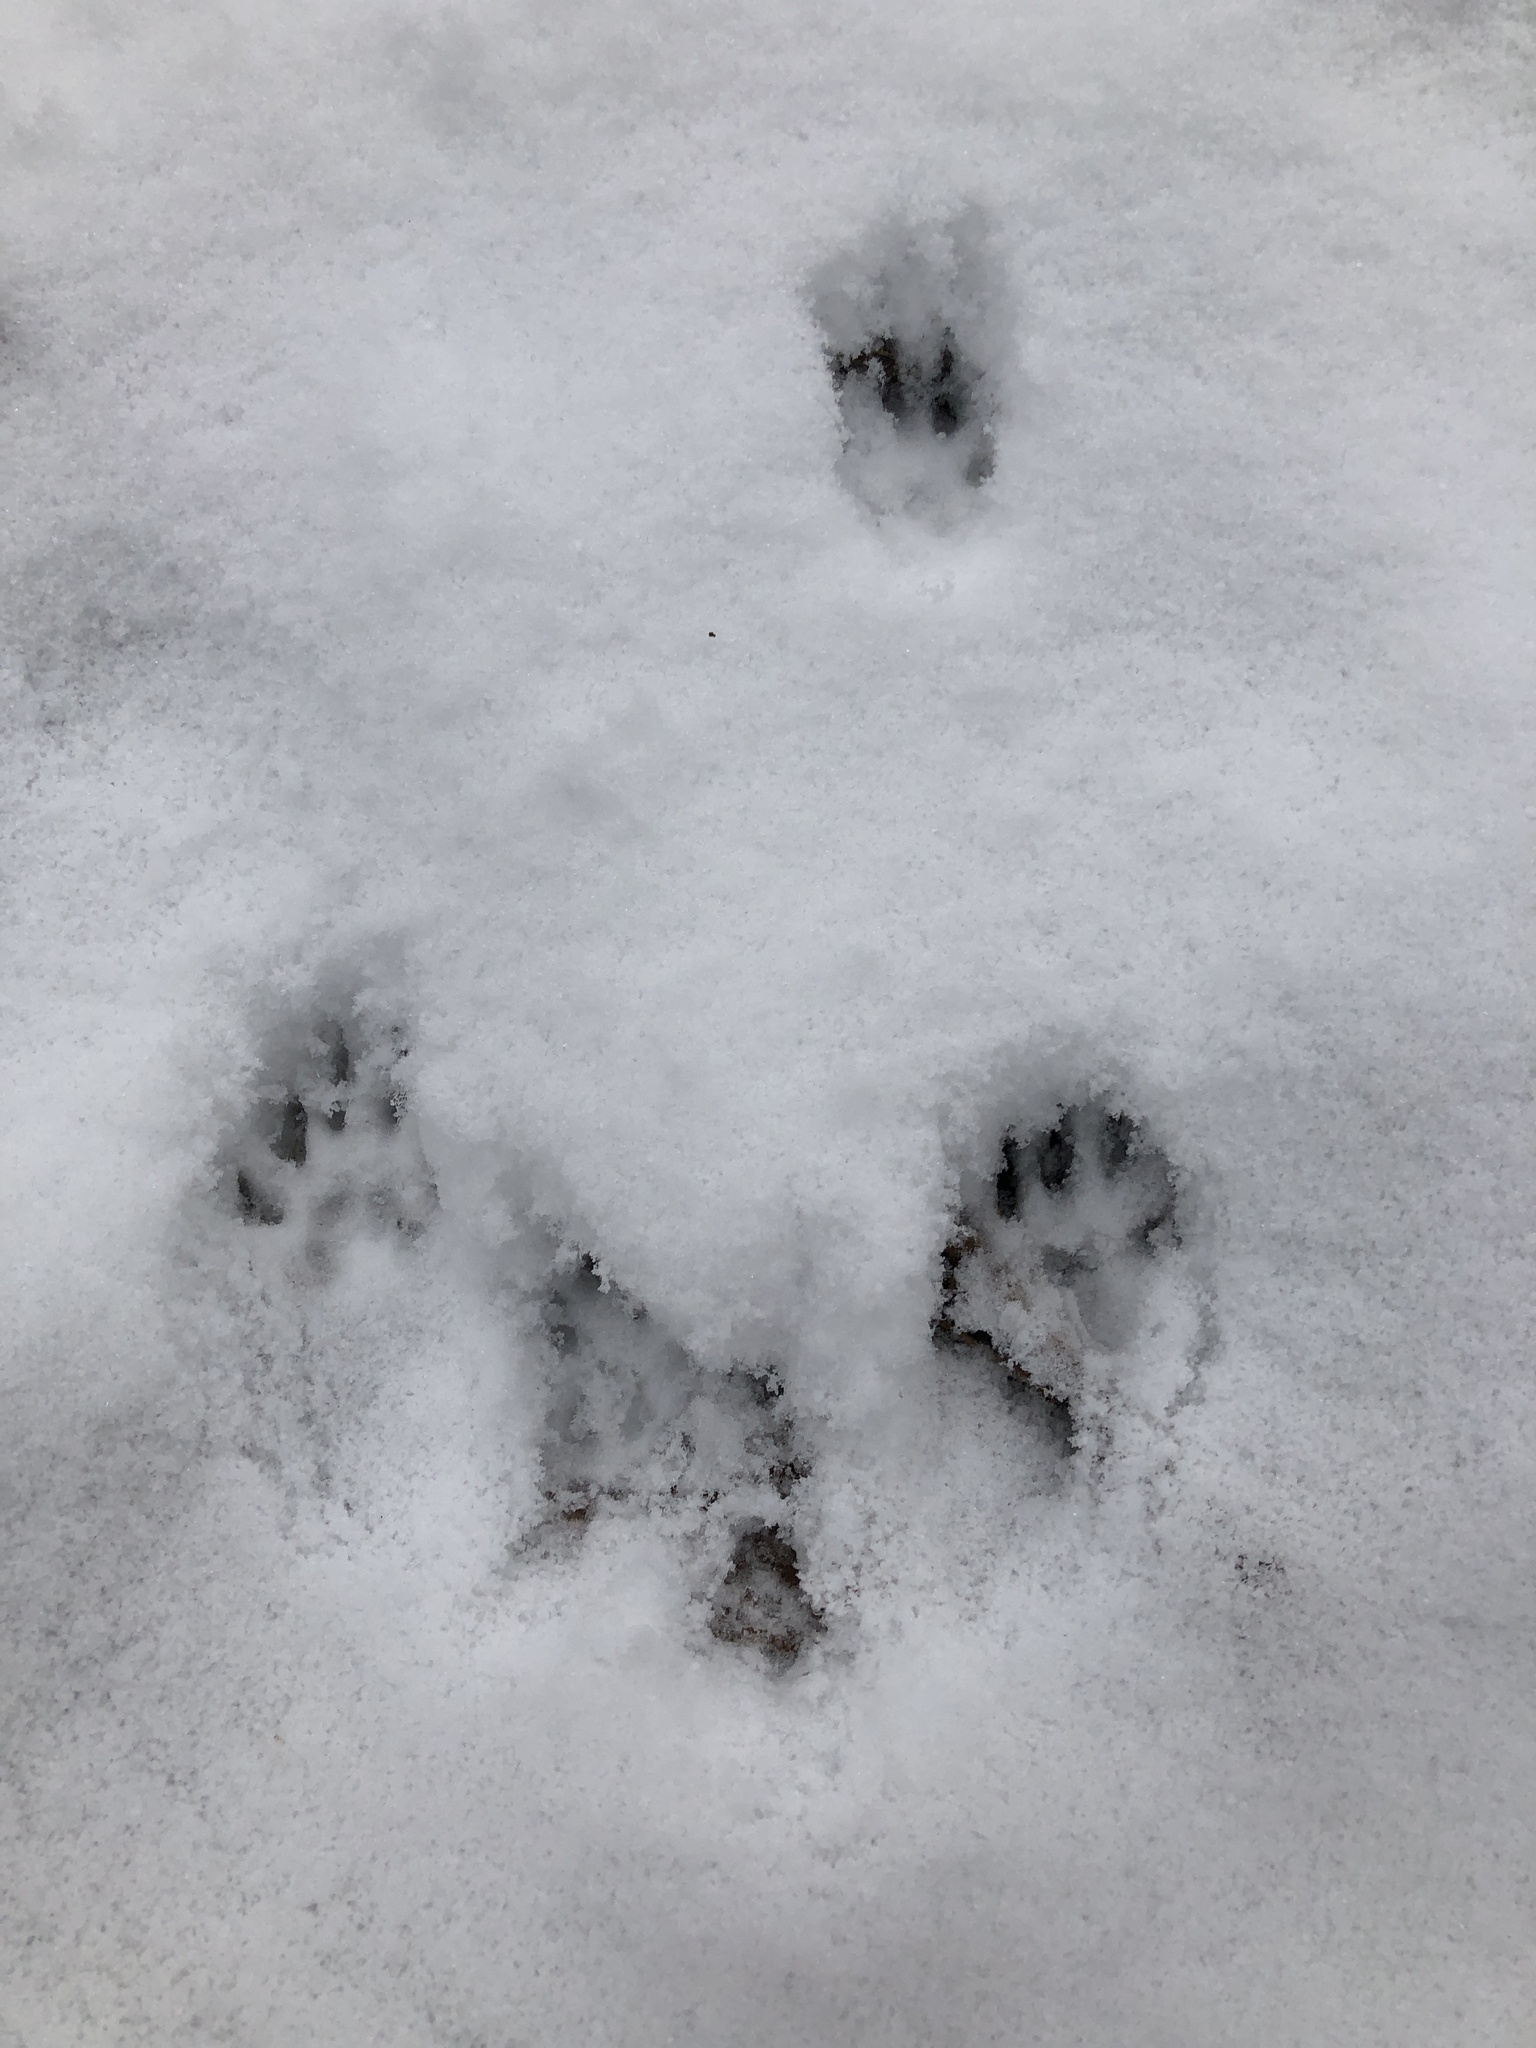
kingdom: Animalia
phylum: Chordata
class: Mammalia
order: Rodentia
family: Sciuridae
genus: Sciurus
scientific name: Sciurus carolinensis
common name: Eastern gray squirrel
